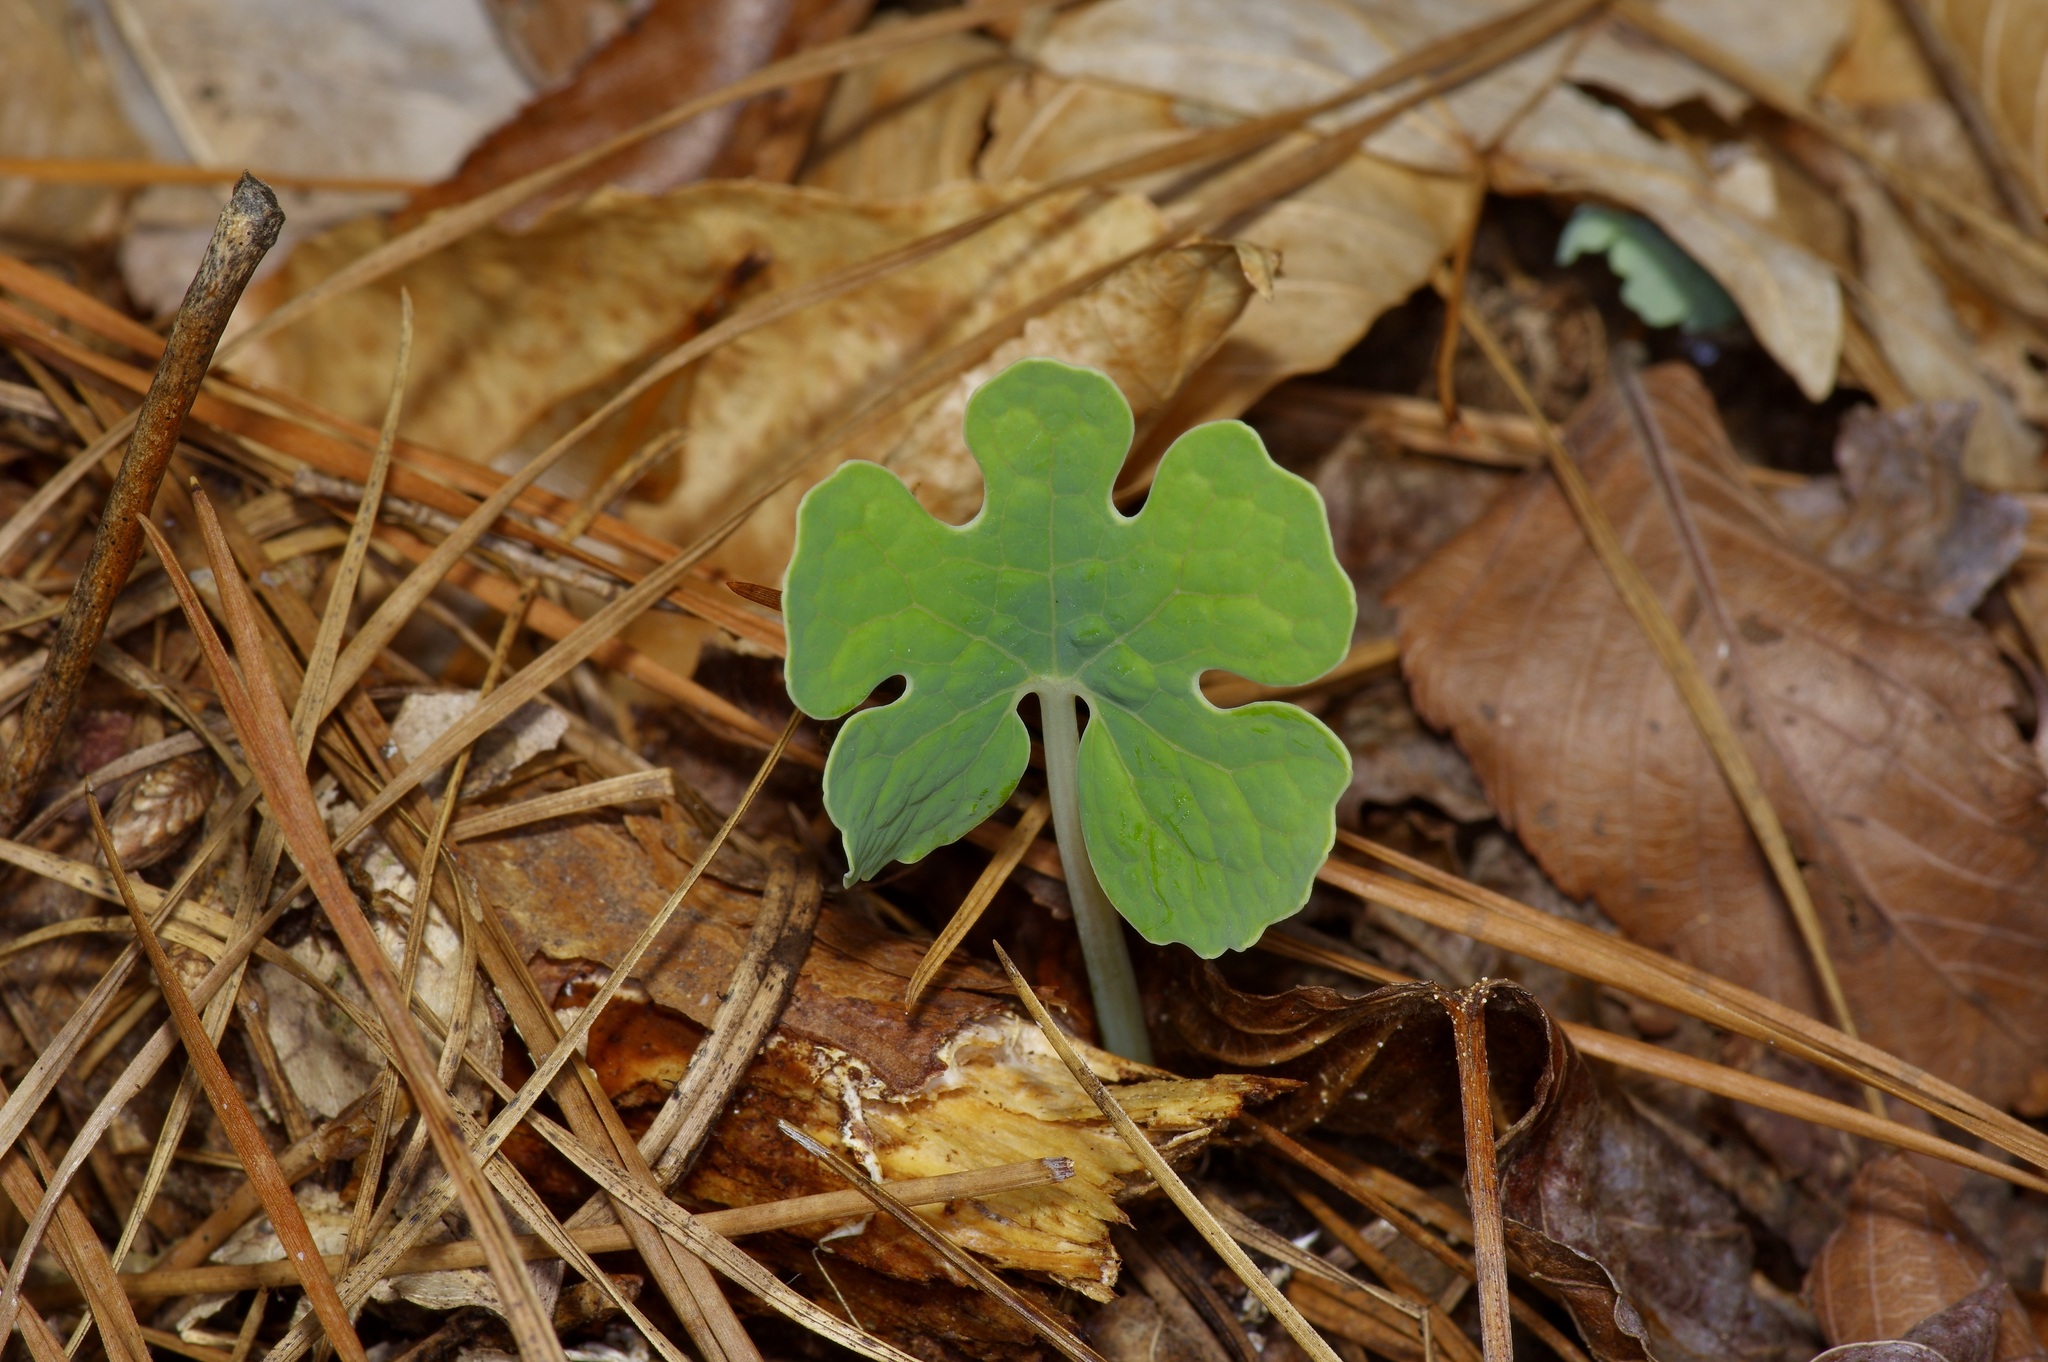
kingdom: Plantae
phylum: Tracheophyta
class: Magnoliopsida
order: Ranunculales
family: Papaveraceae
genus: Sanguinaria
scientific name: Sanguinaria canadensis
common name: Bloodroot
